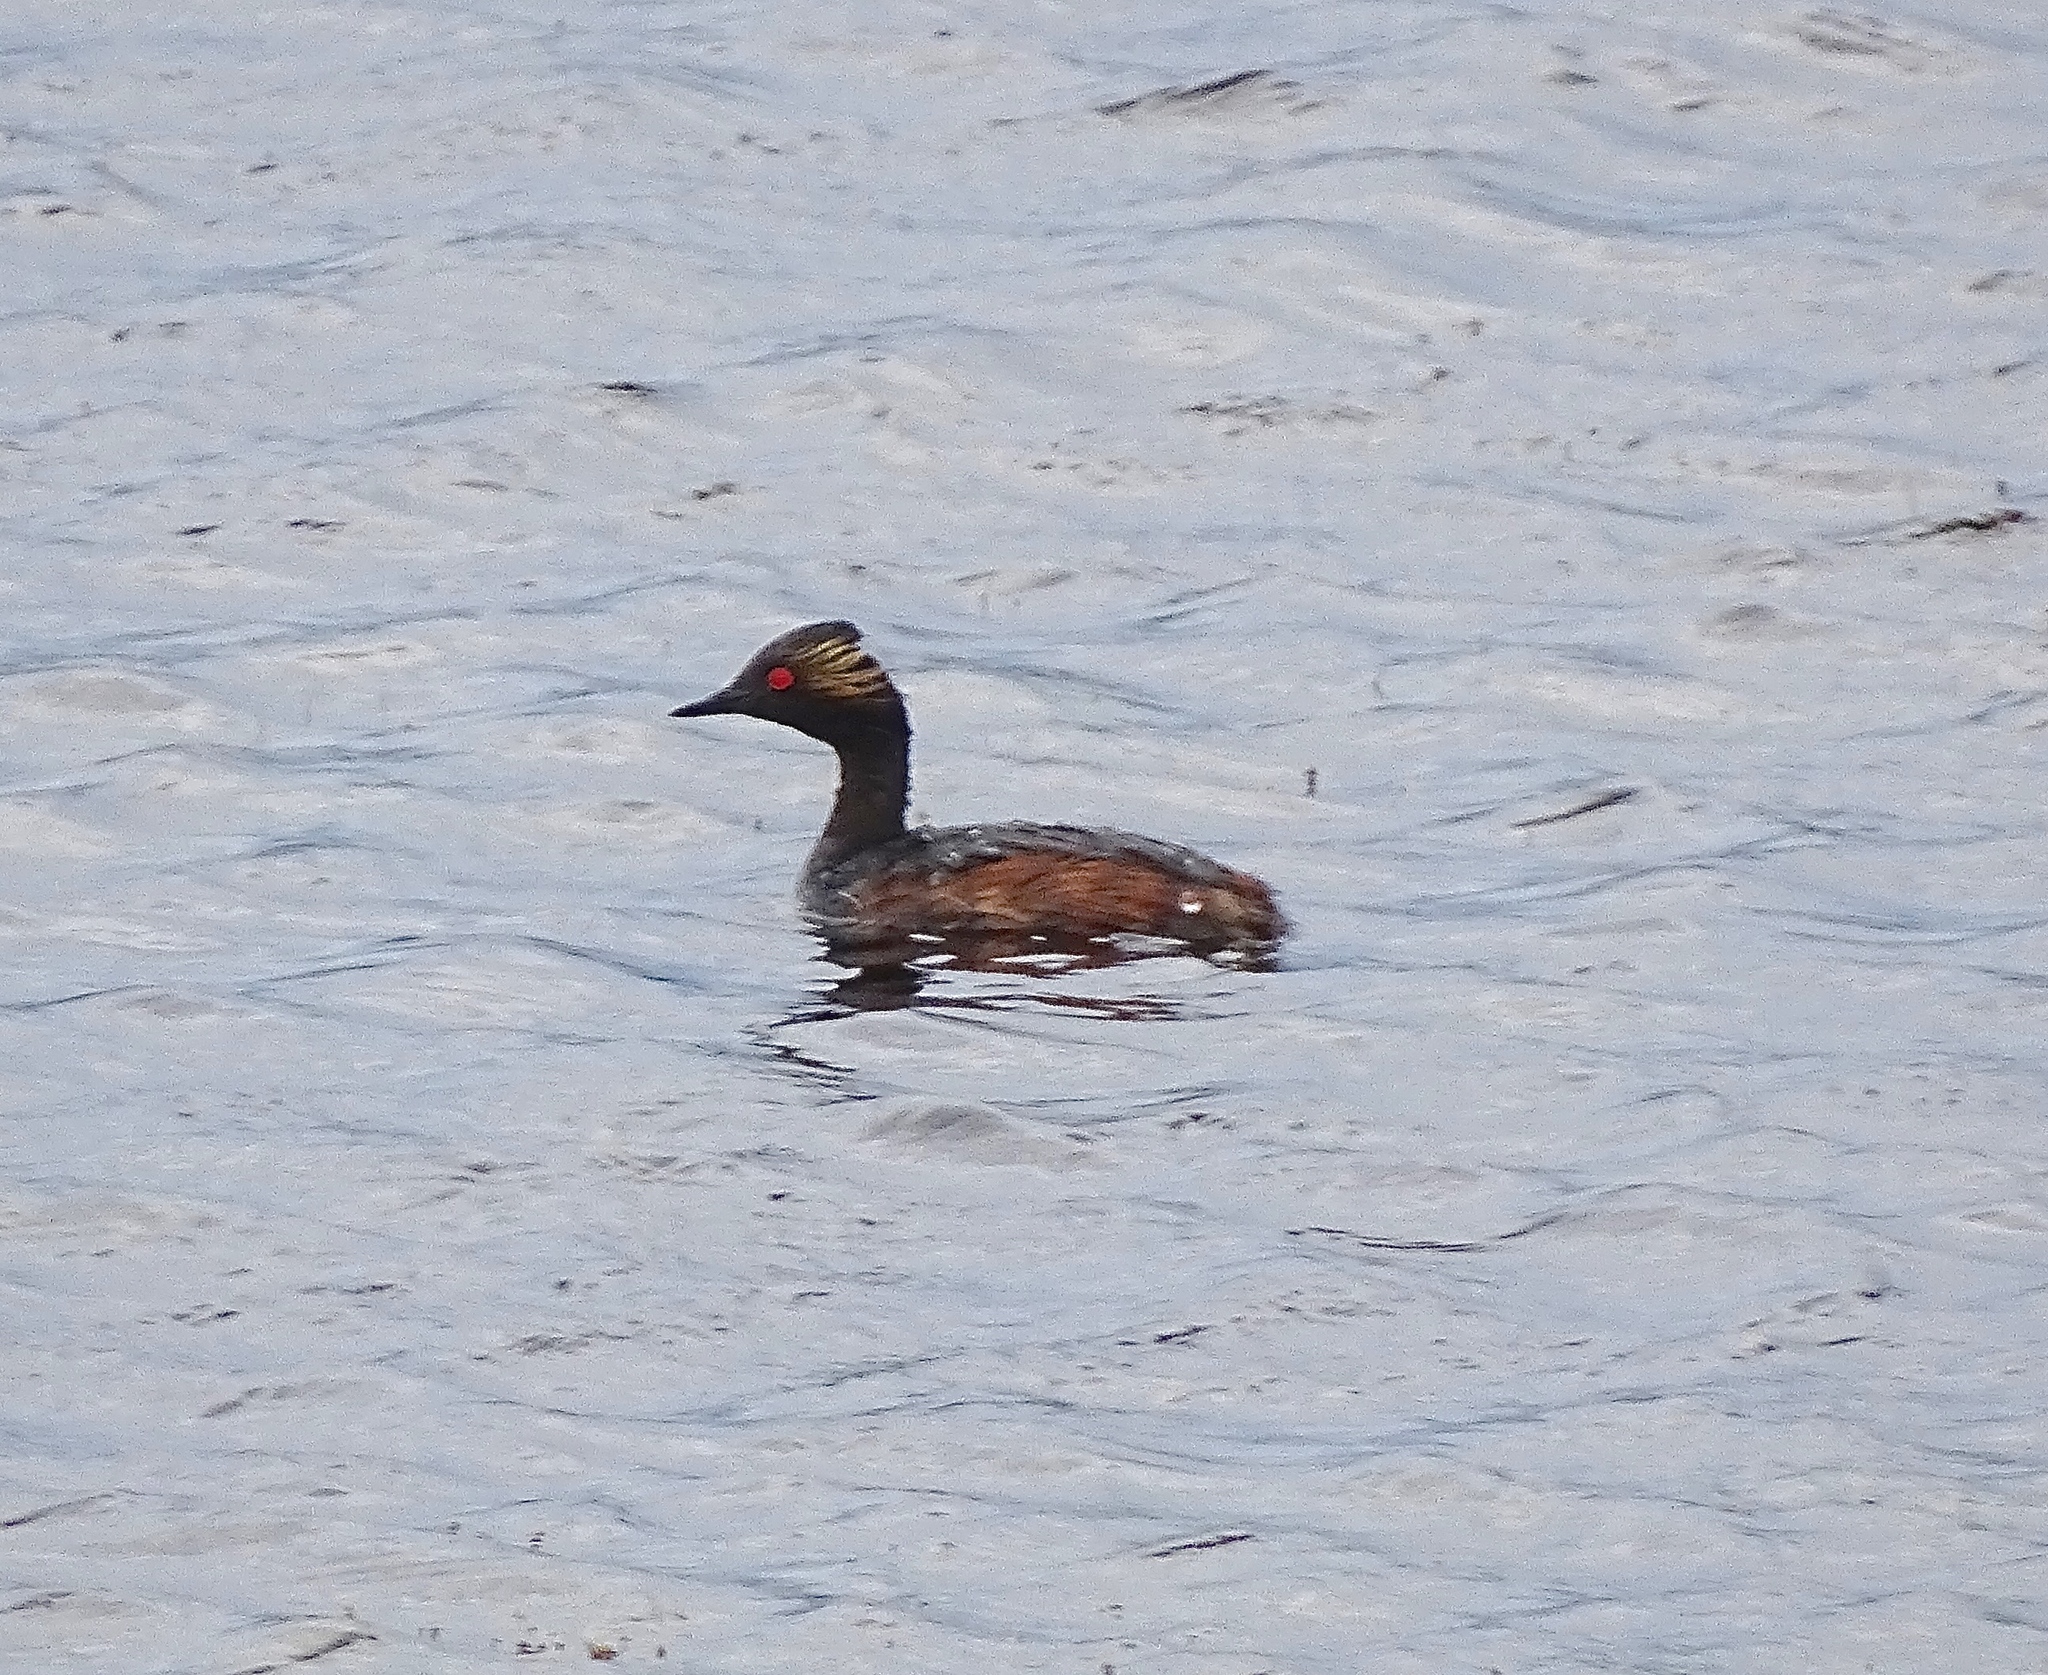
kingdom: Animalia
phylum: Chordata
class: Aves
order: Podicipediformes
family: Podicipedidae
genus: Podiceps
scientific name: Podiceps nigricollis
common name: Black-necked grebe
